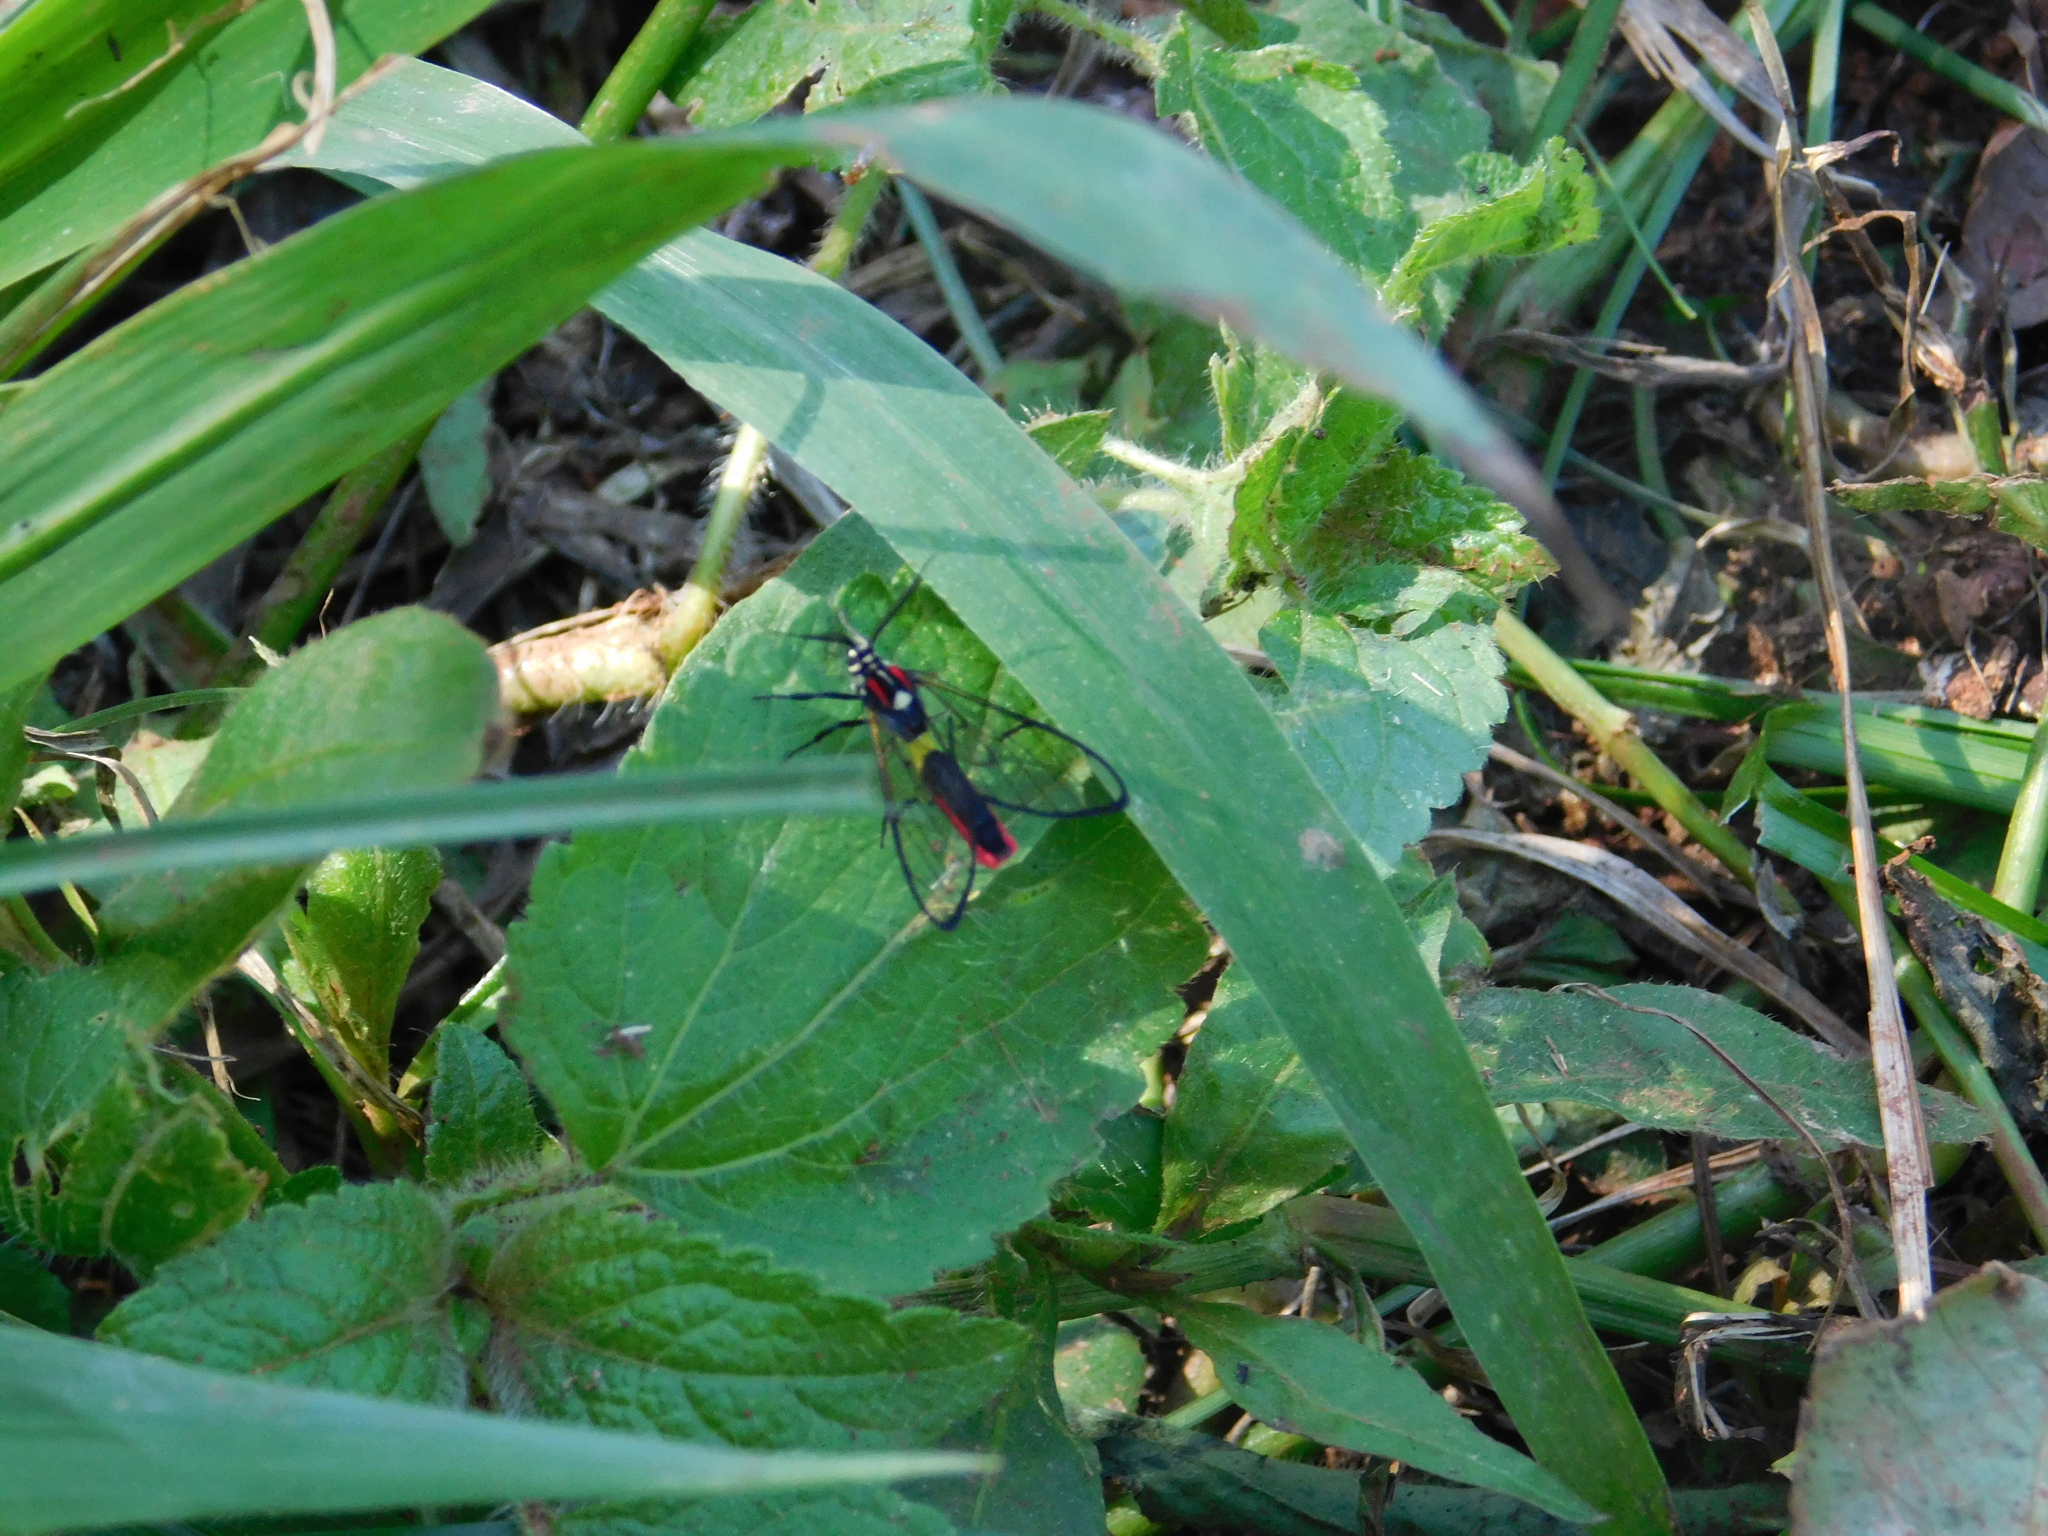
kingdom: Animalia
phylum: Arthropoda
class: Insecta
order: Lepidoptera
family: Erebidae
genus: Argyroeides
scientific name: Argyroeides braco
